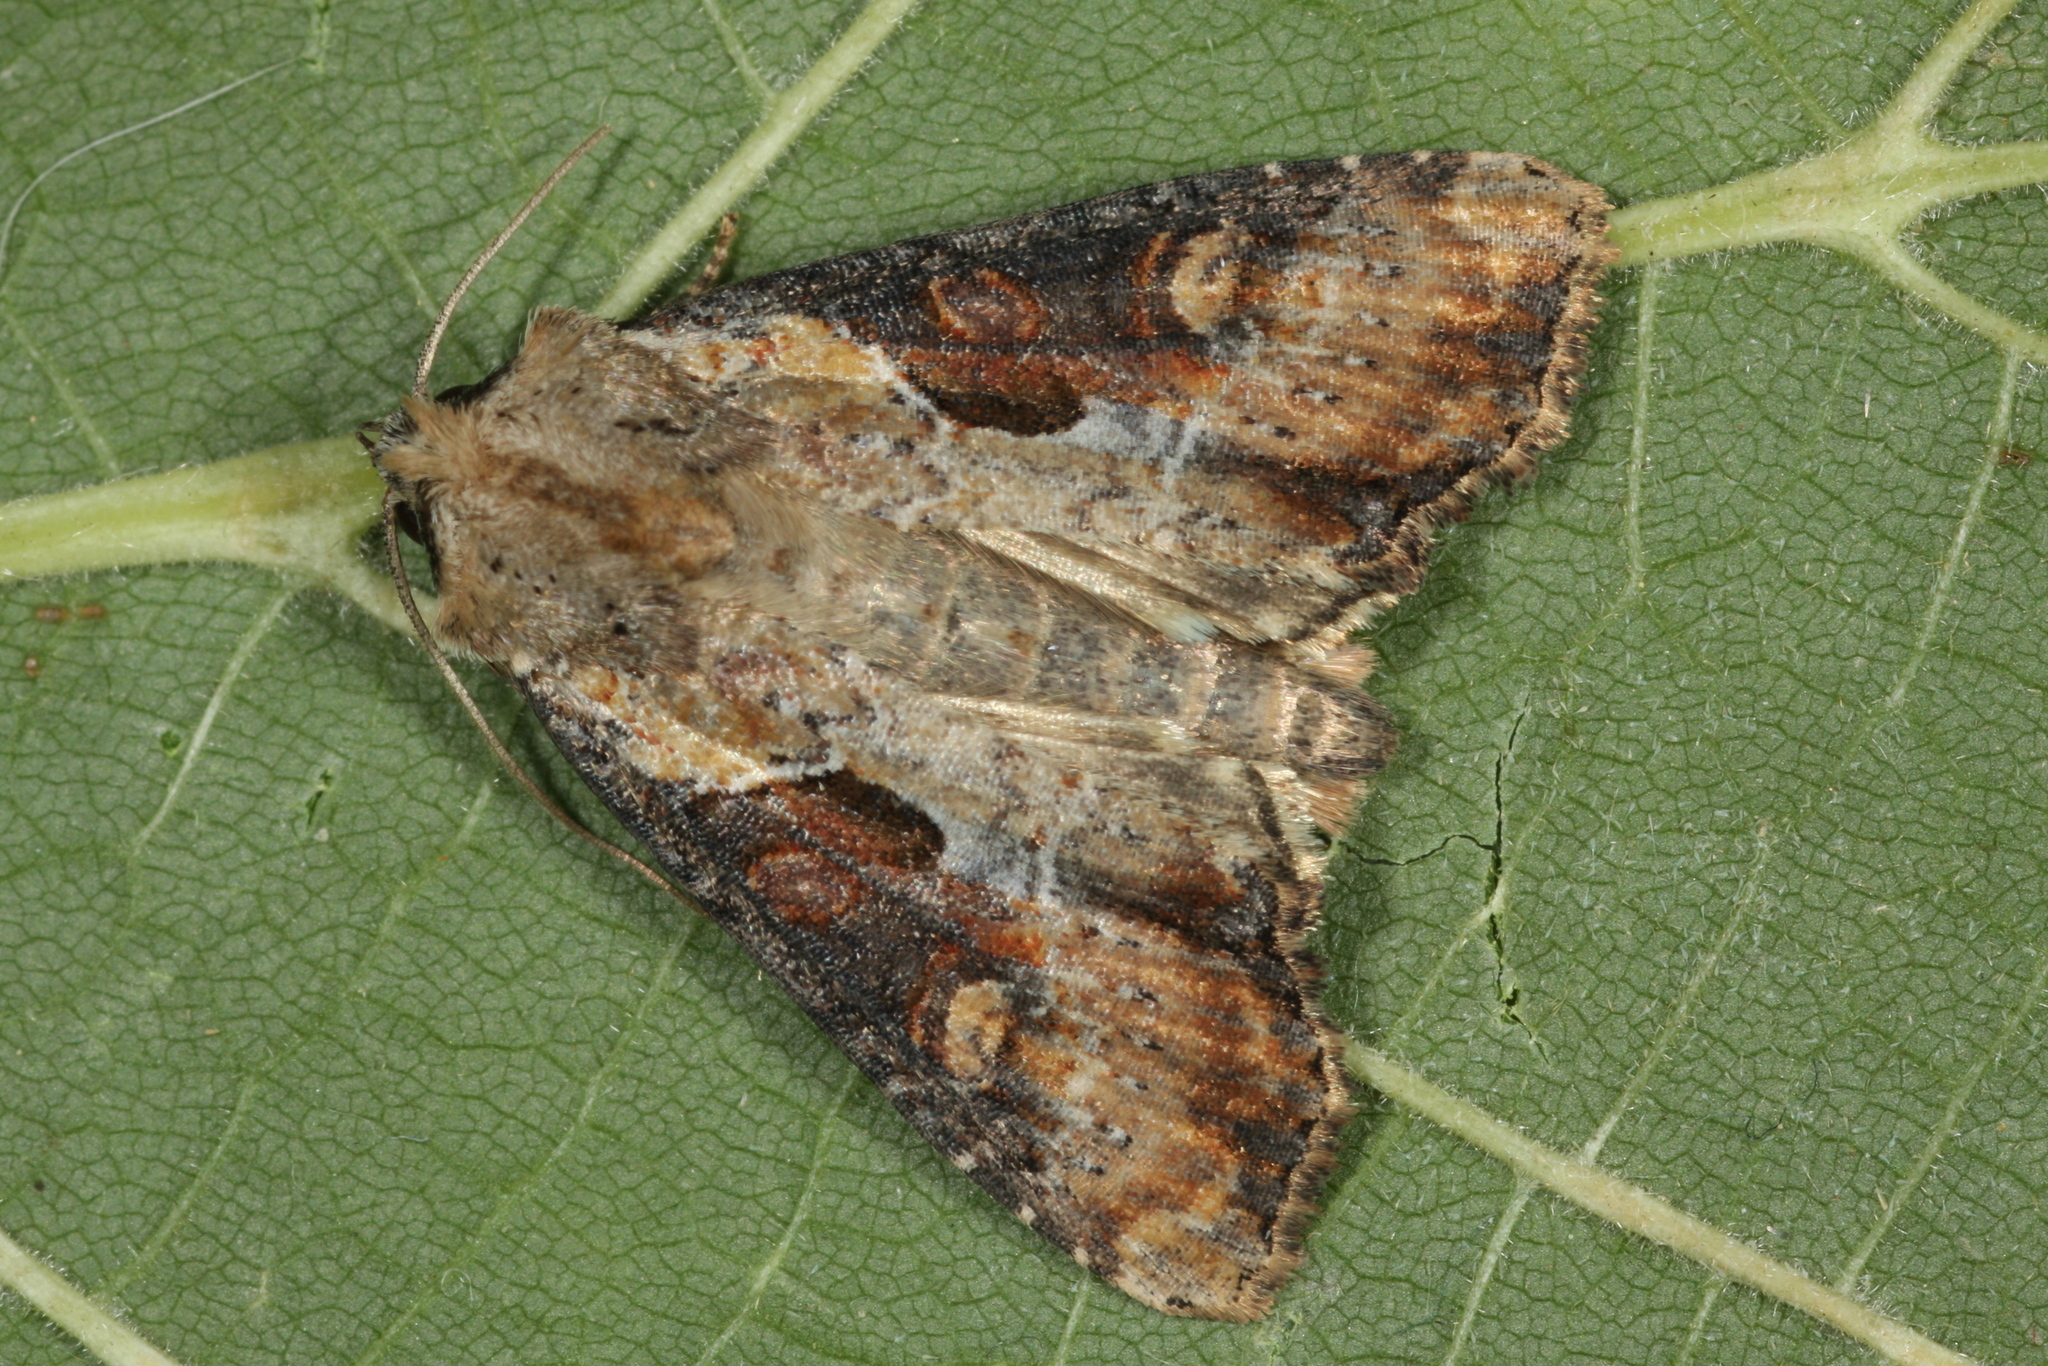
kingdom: Animalia
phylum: Arthropoda
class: Insecta
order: Lepidoptera
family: Noctuidae
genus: Lateroligia
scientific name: Lateroligia ophiogramma
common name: Double lobed
